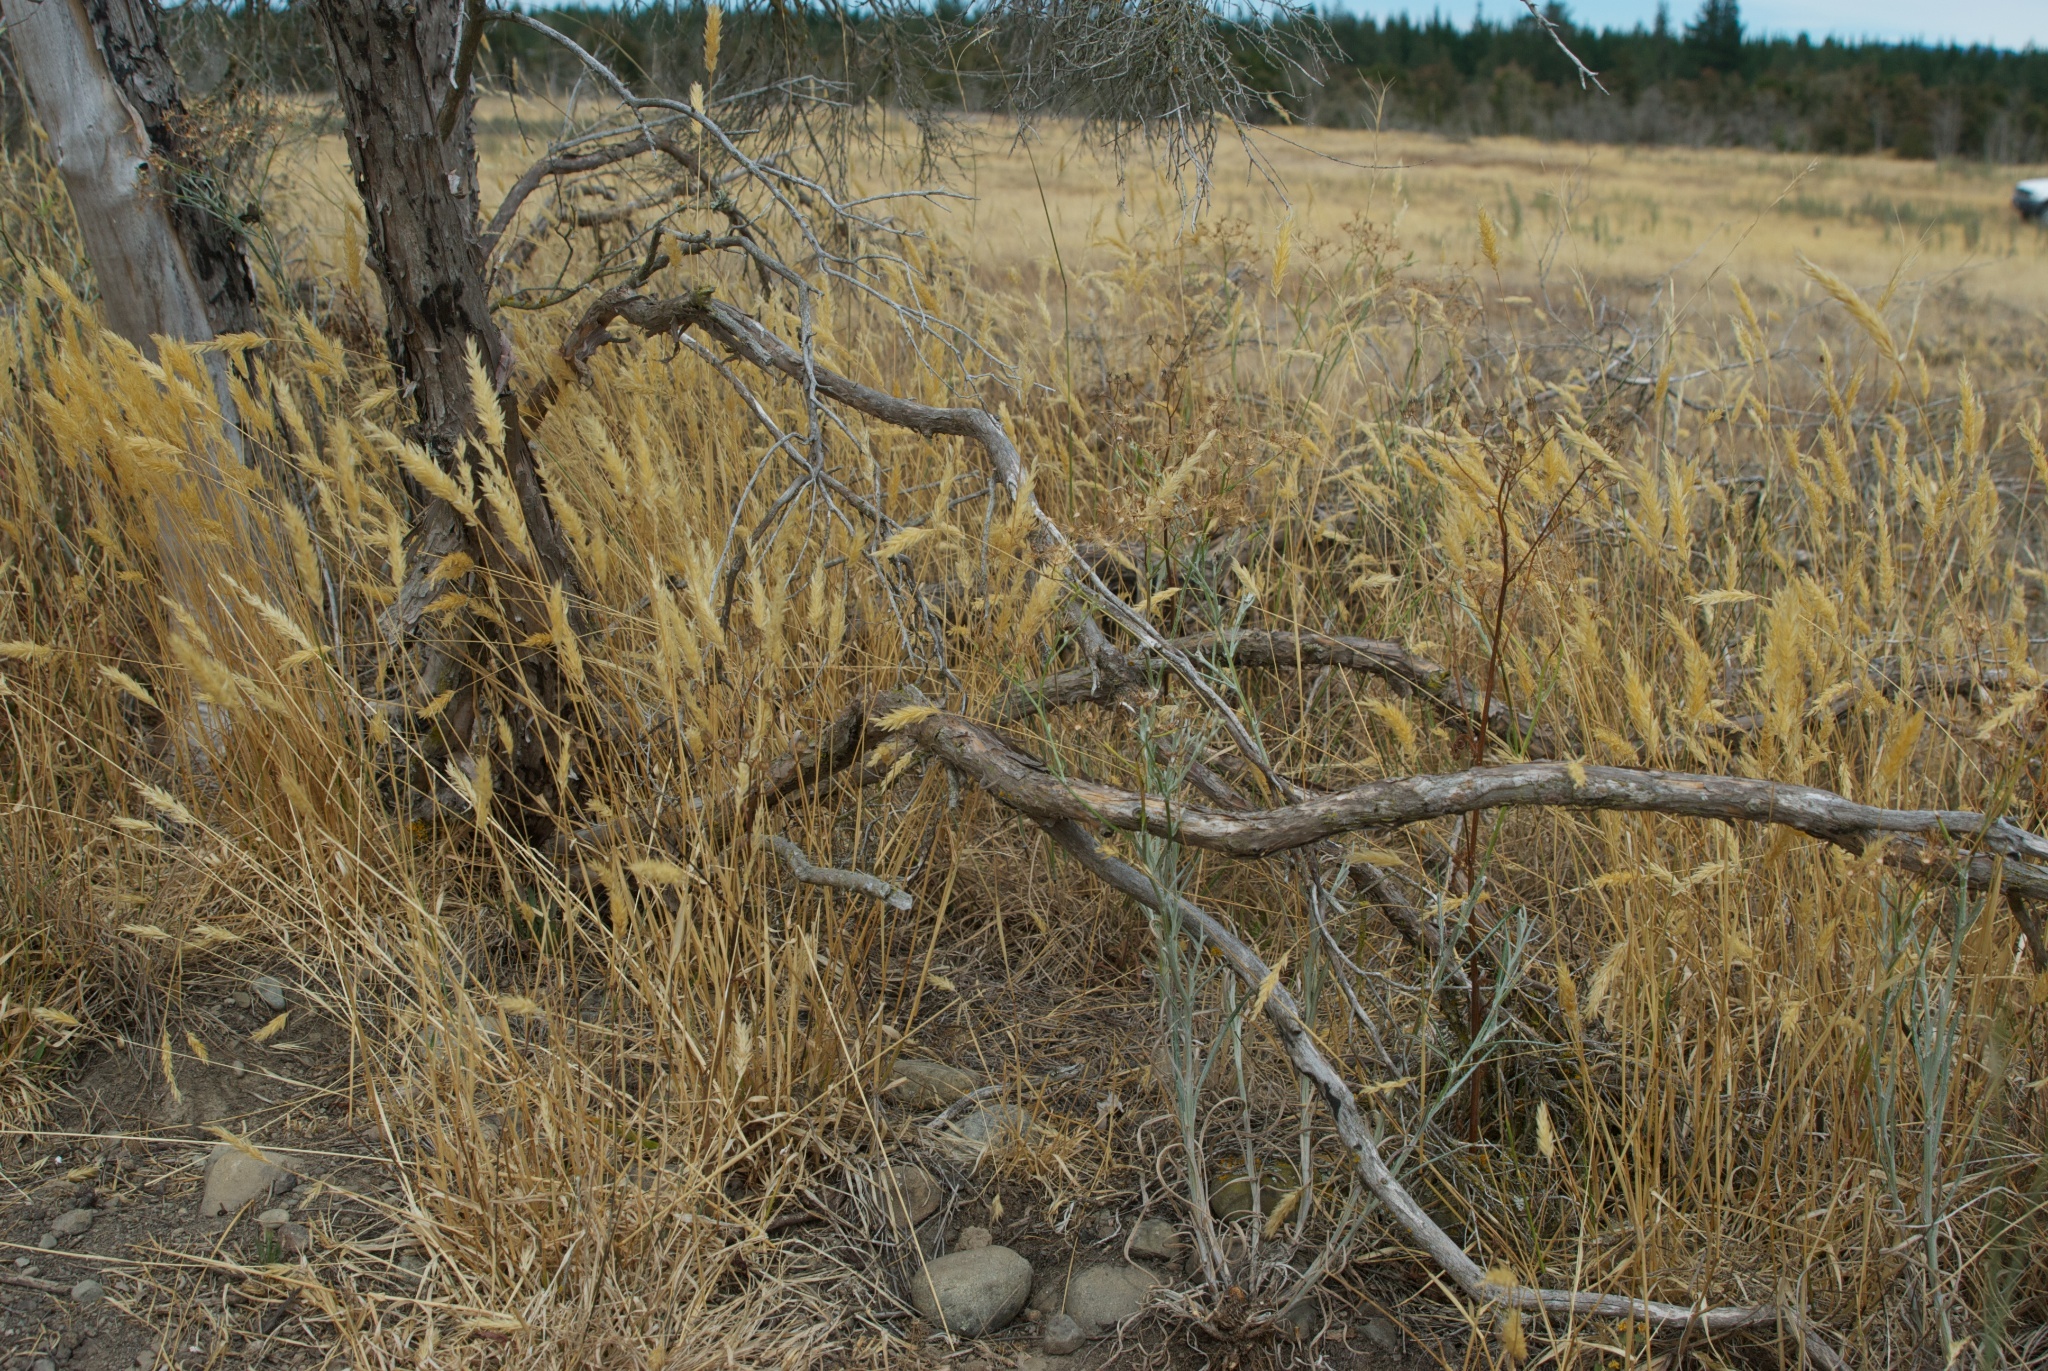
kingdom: Plantae
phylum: Tracheophyta
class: Magnoliopsida
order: Asterales
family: Asteraceae
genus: Senecio
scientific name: Senecio quadridentatus
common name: Cotton fireweed
